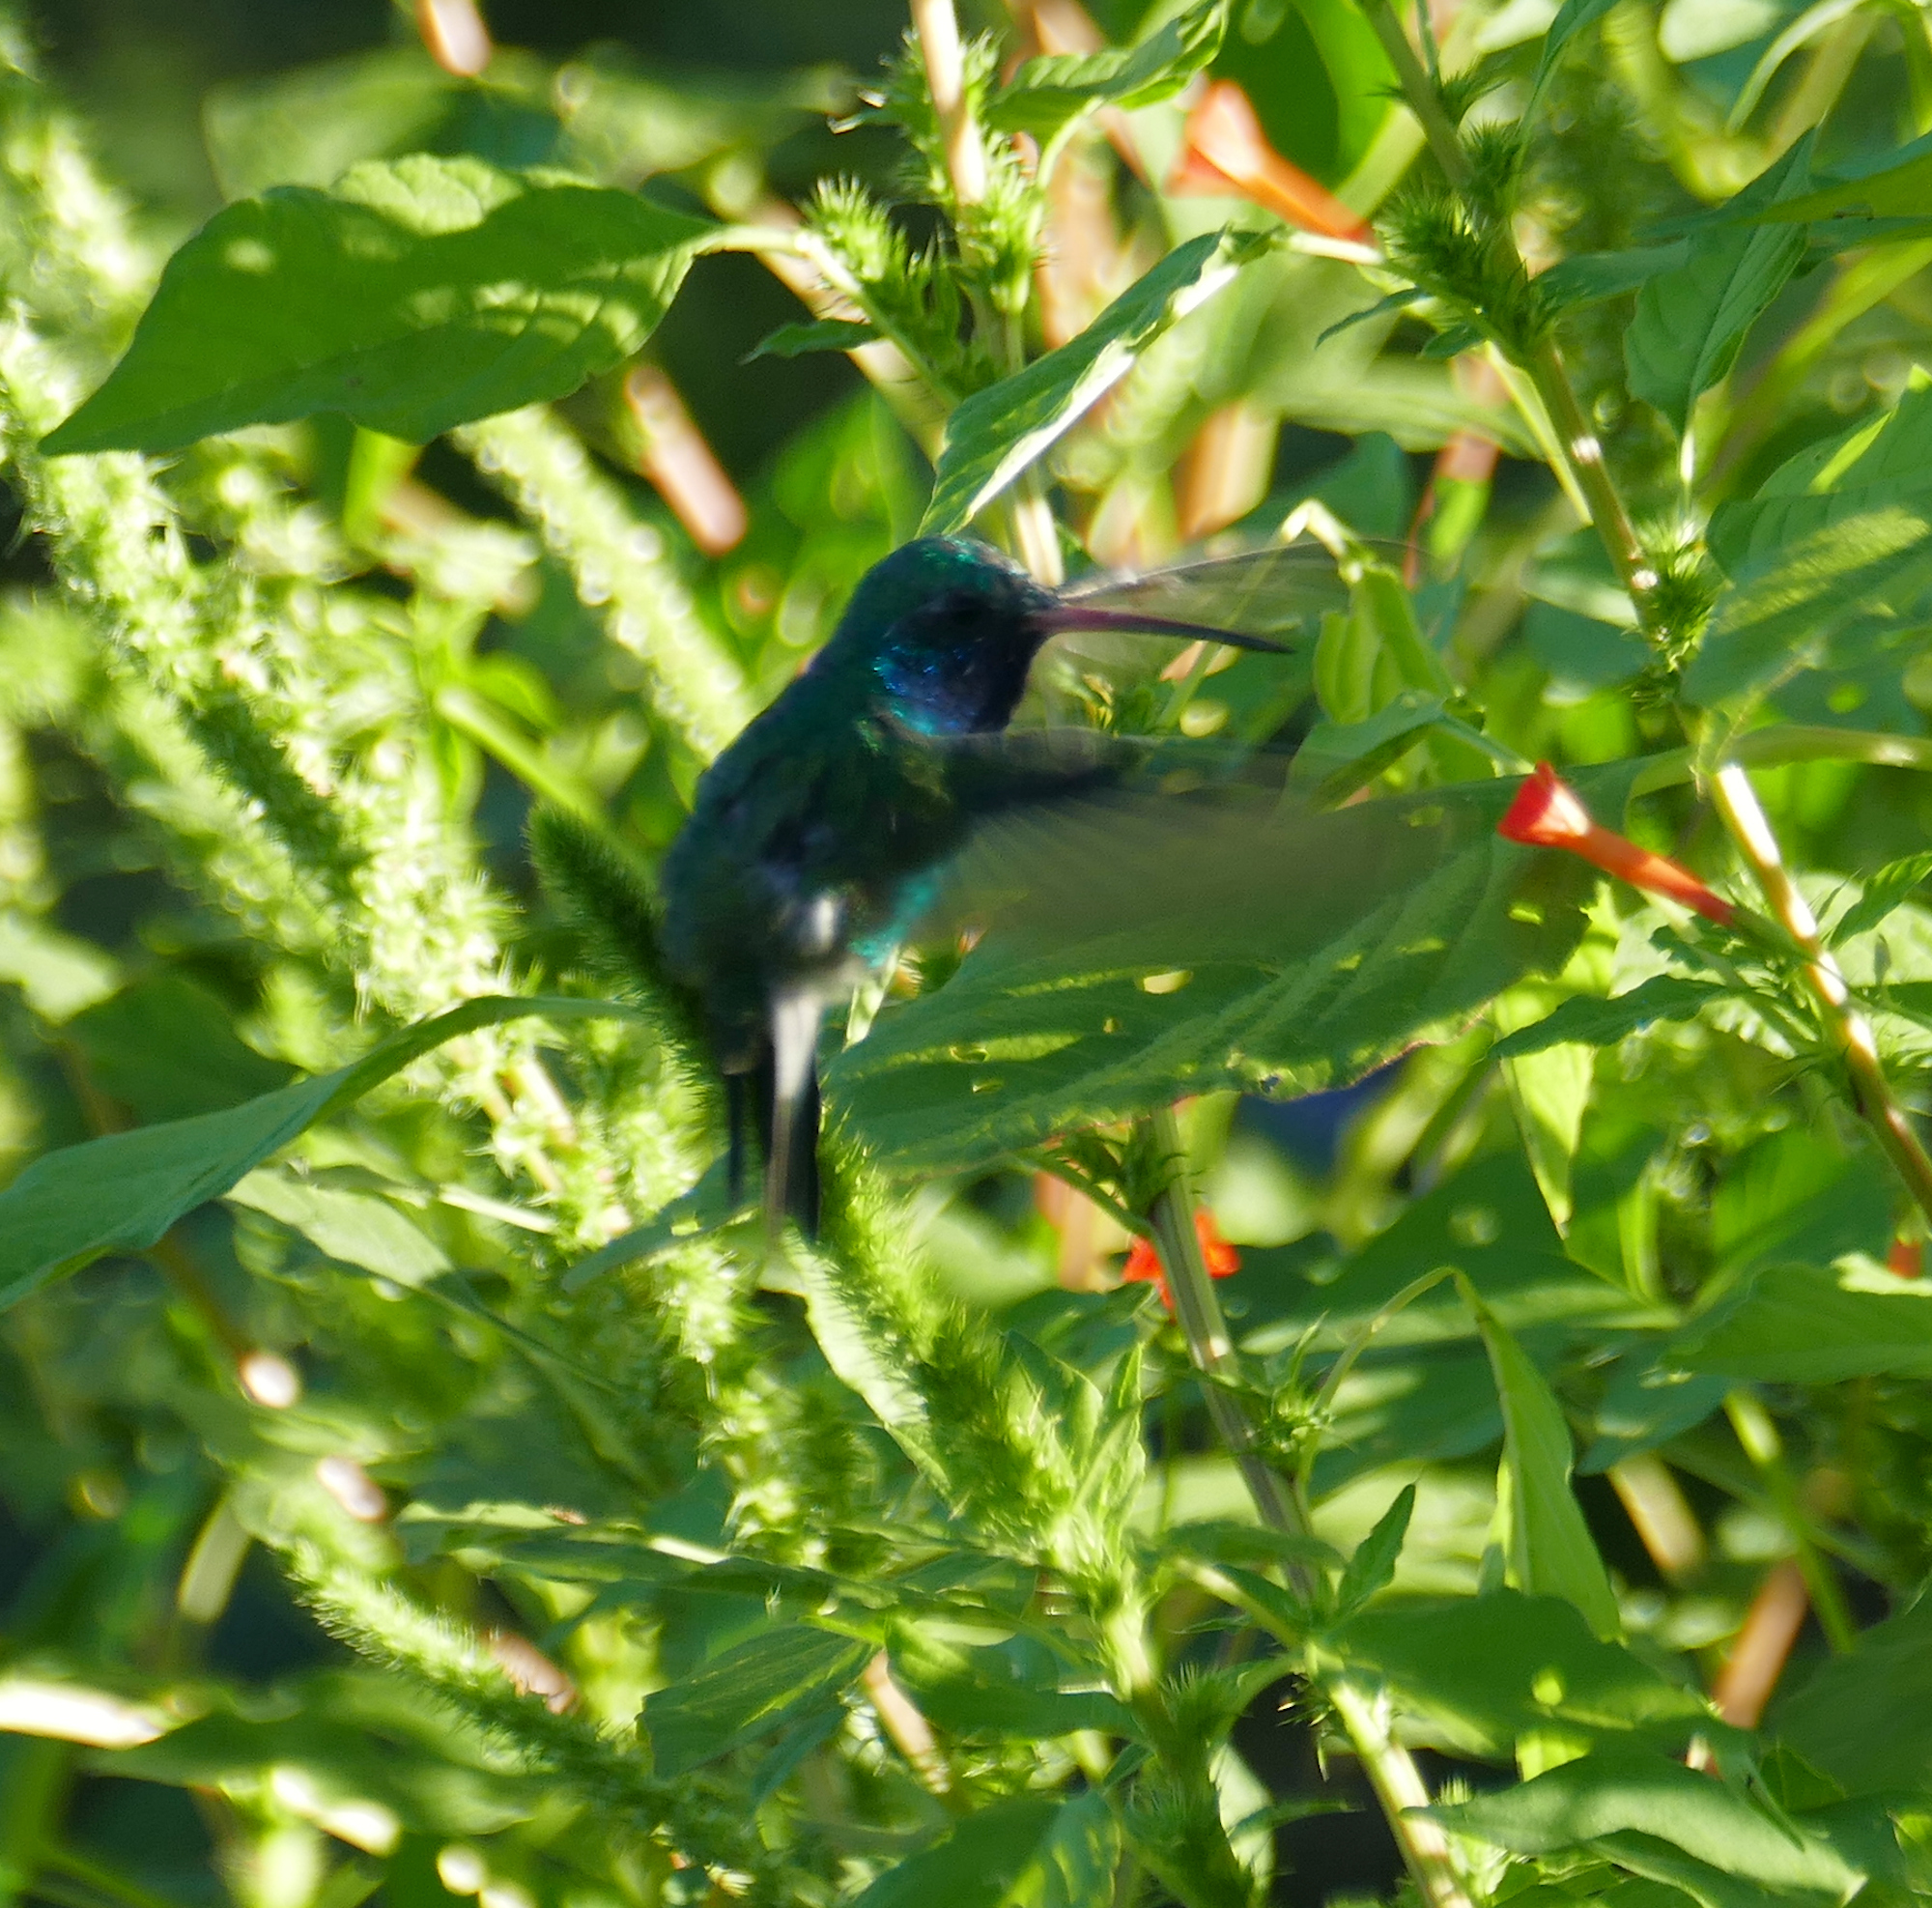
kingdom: Animalia
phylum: Chordata
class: Aves
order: Apodiformes
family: Trochilidae
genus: Cynanthus
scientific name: Cynanthus latirostris
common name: Broad-billed hummingbird
